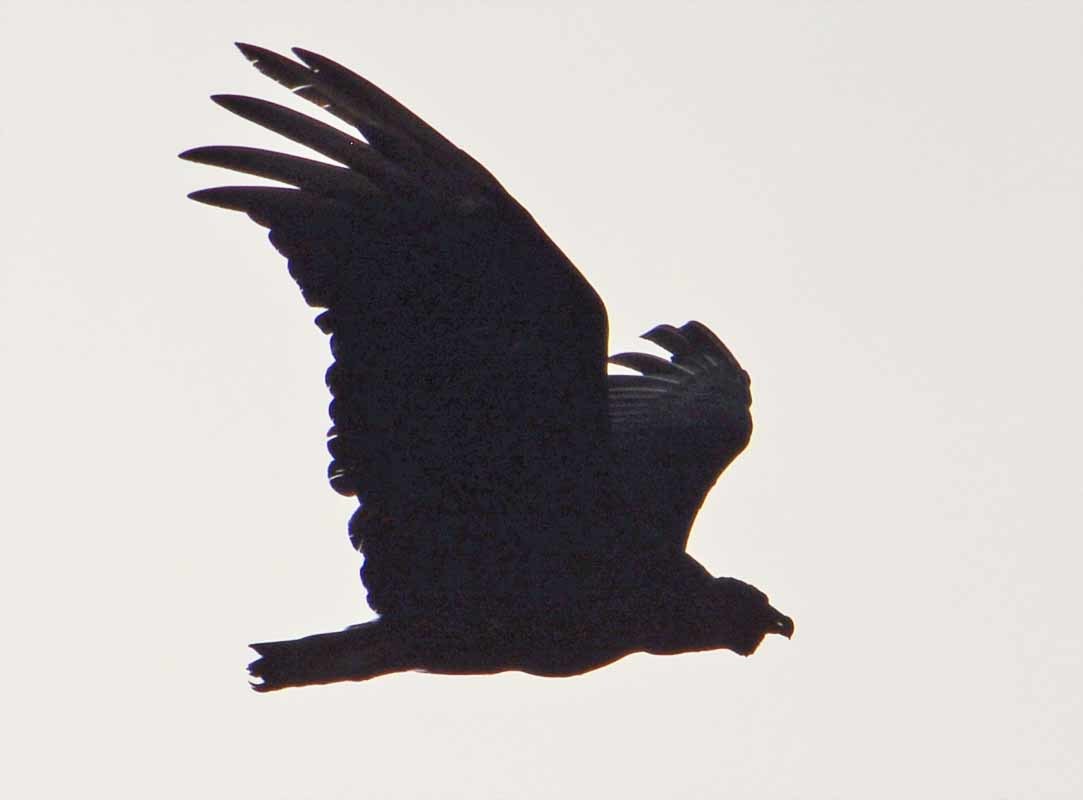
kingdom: Animalia
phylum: Chordata
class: Aves
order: Accipitriformes
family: Cathartidae
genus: Coragyps
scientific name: Coragyps atratus
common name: Black vulture
